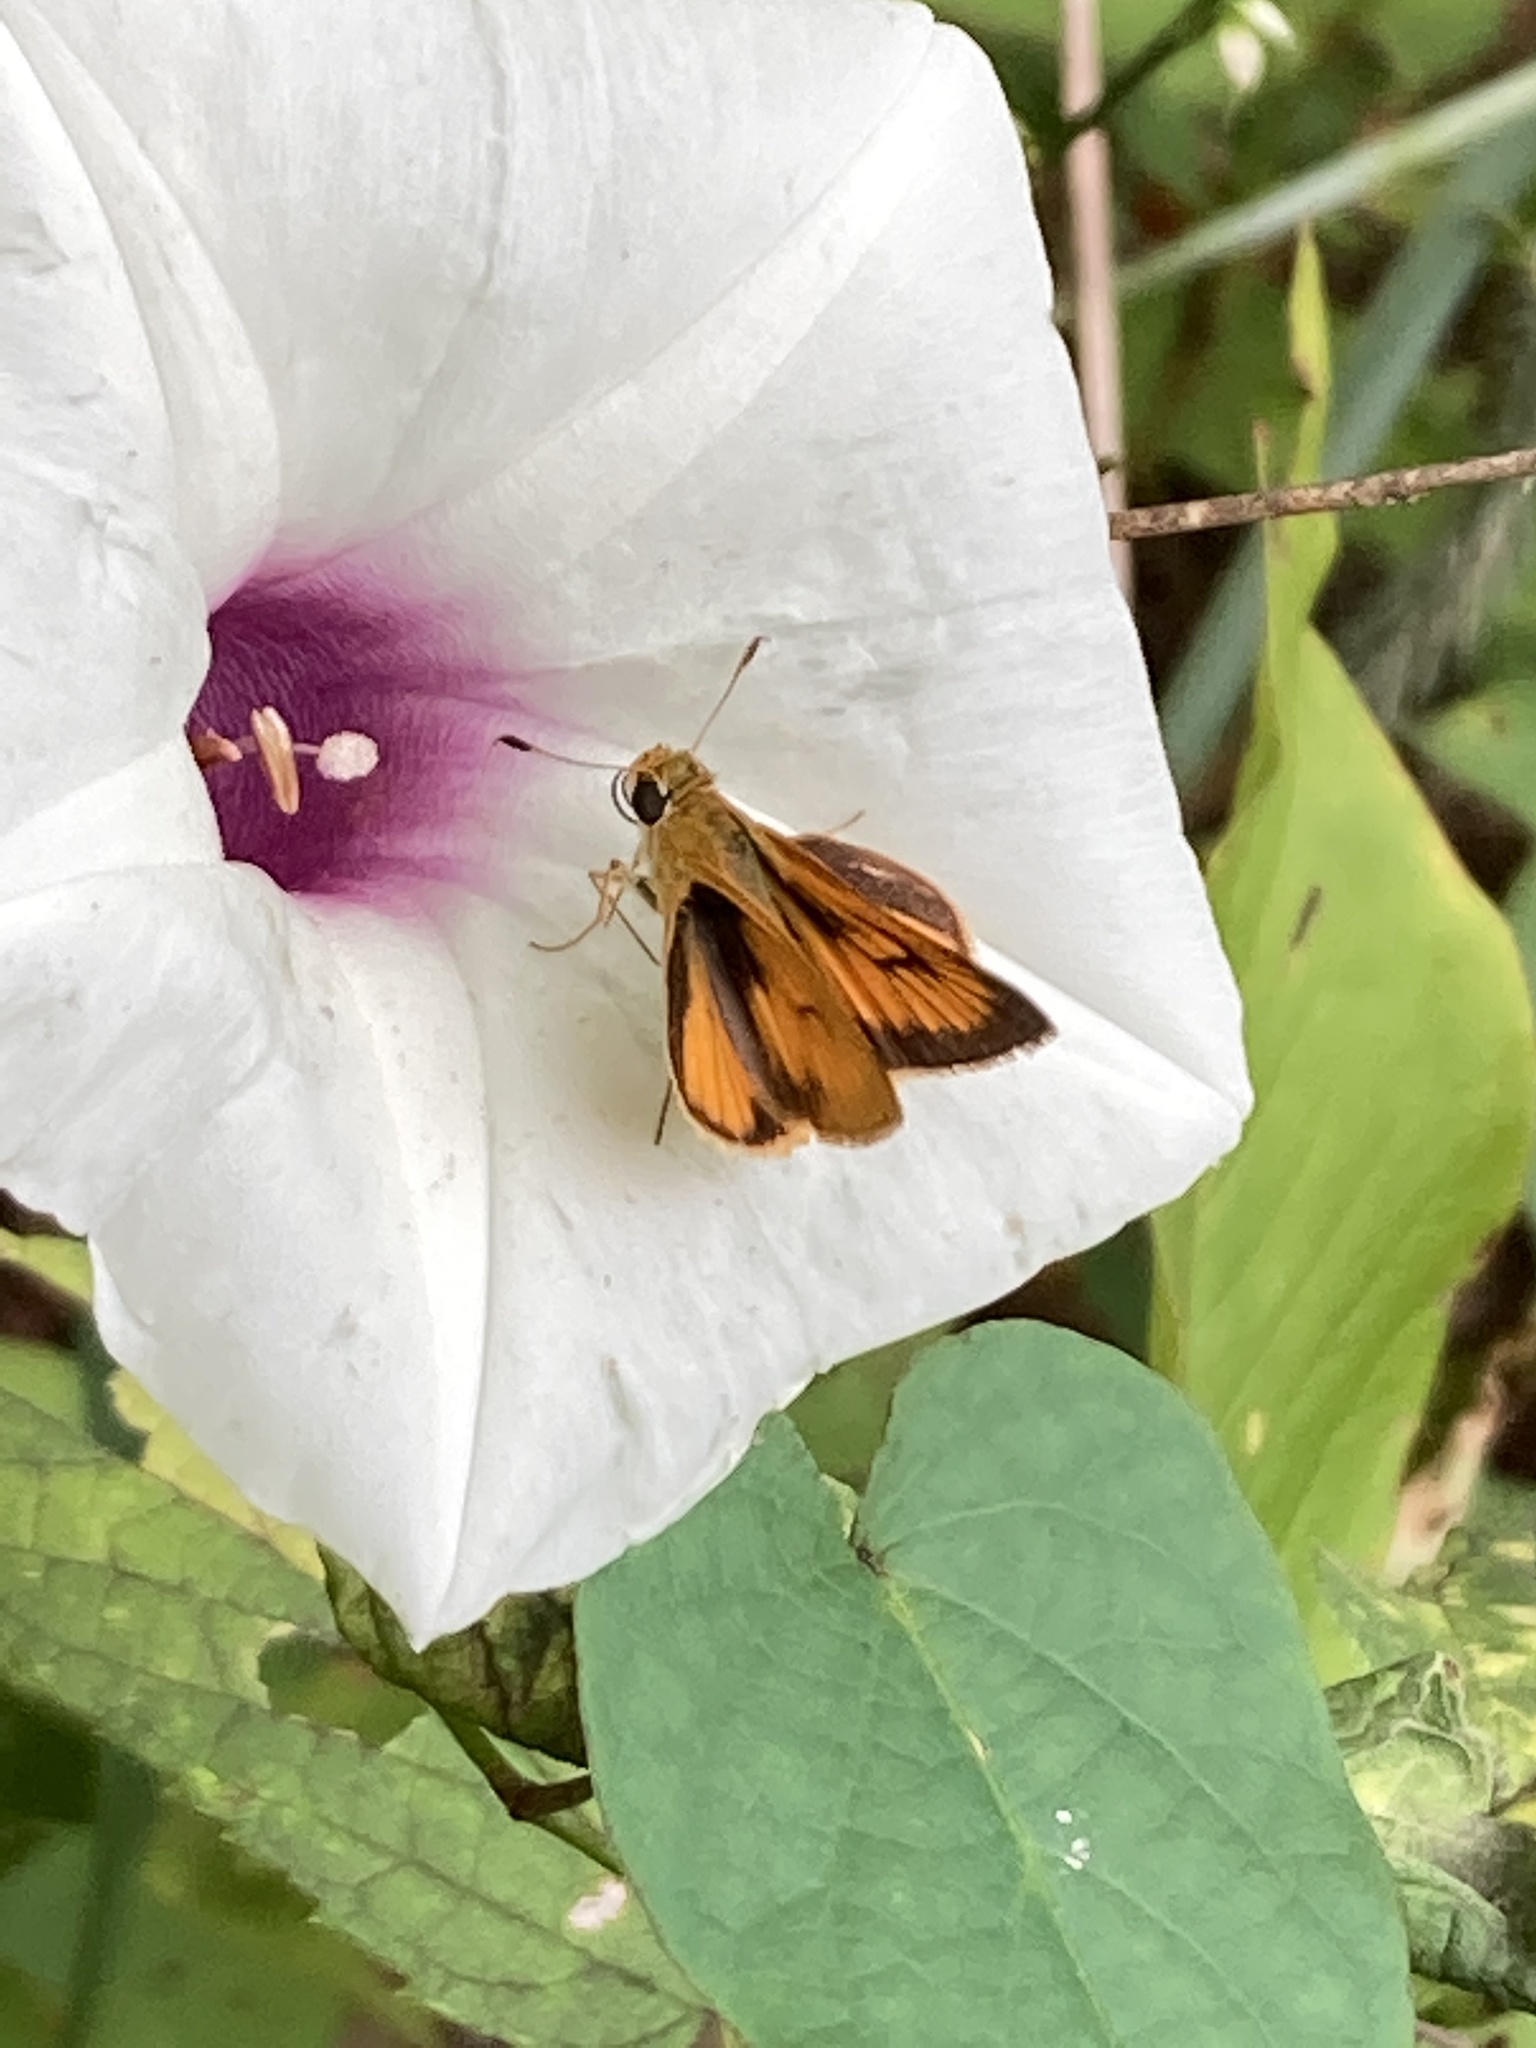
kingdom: Animalia
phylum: Arthropoda
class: Insecta
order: Lepidoptera
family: Hesperiidae
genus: Atrytone
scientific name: Atrytone delaware
